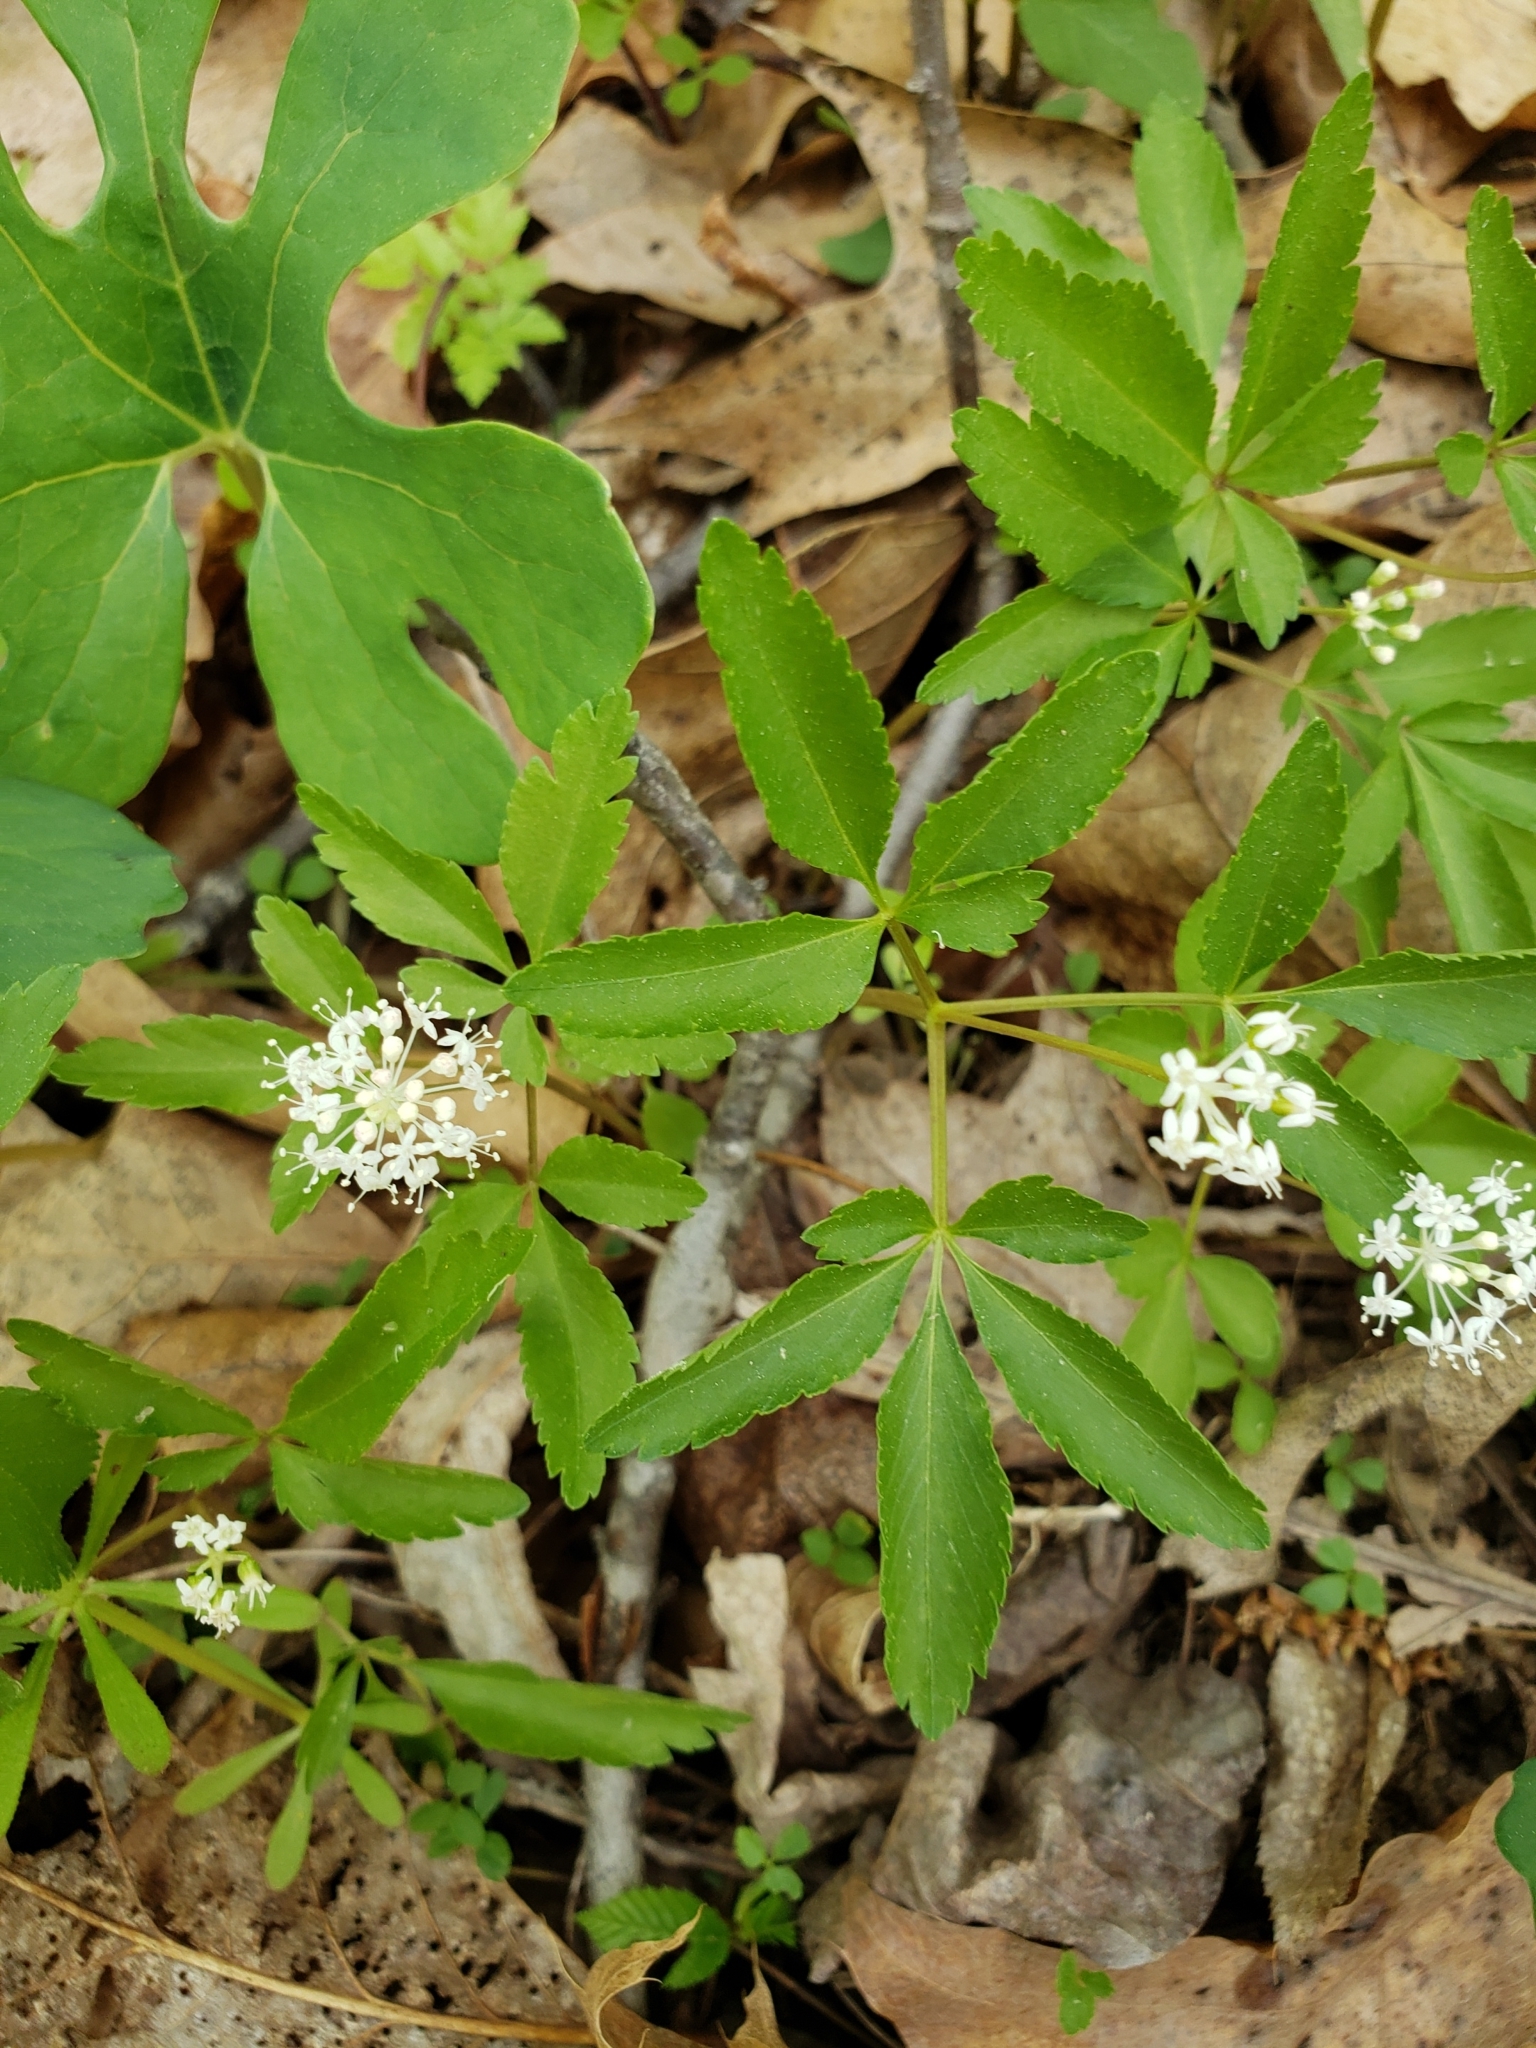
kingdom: Plantae
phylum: Tracheophyta
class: Magnoliopsida
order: Apiales
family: Araliaceae
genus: Panax
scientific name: Panax trifolius
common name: Dwarf ginseng
